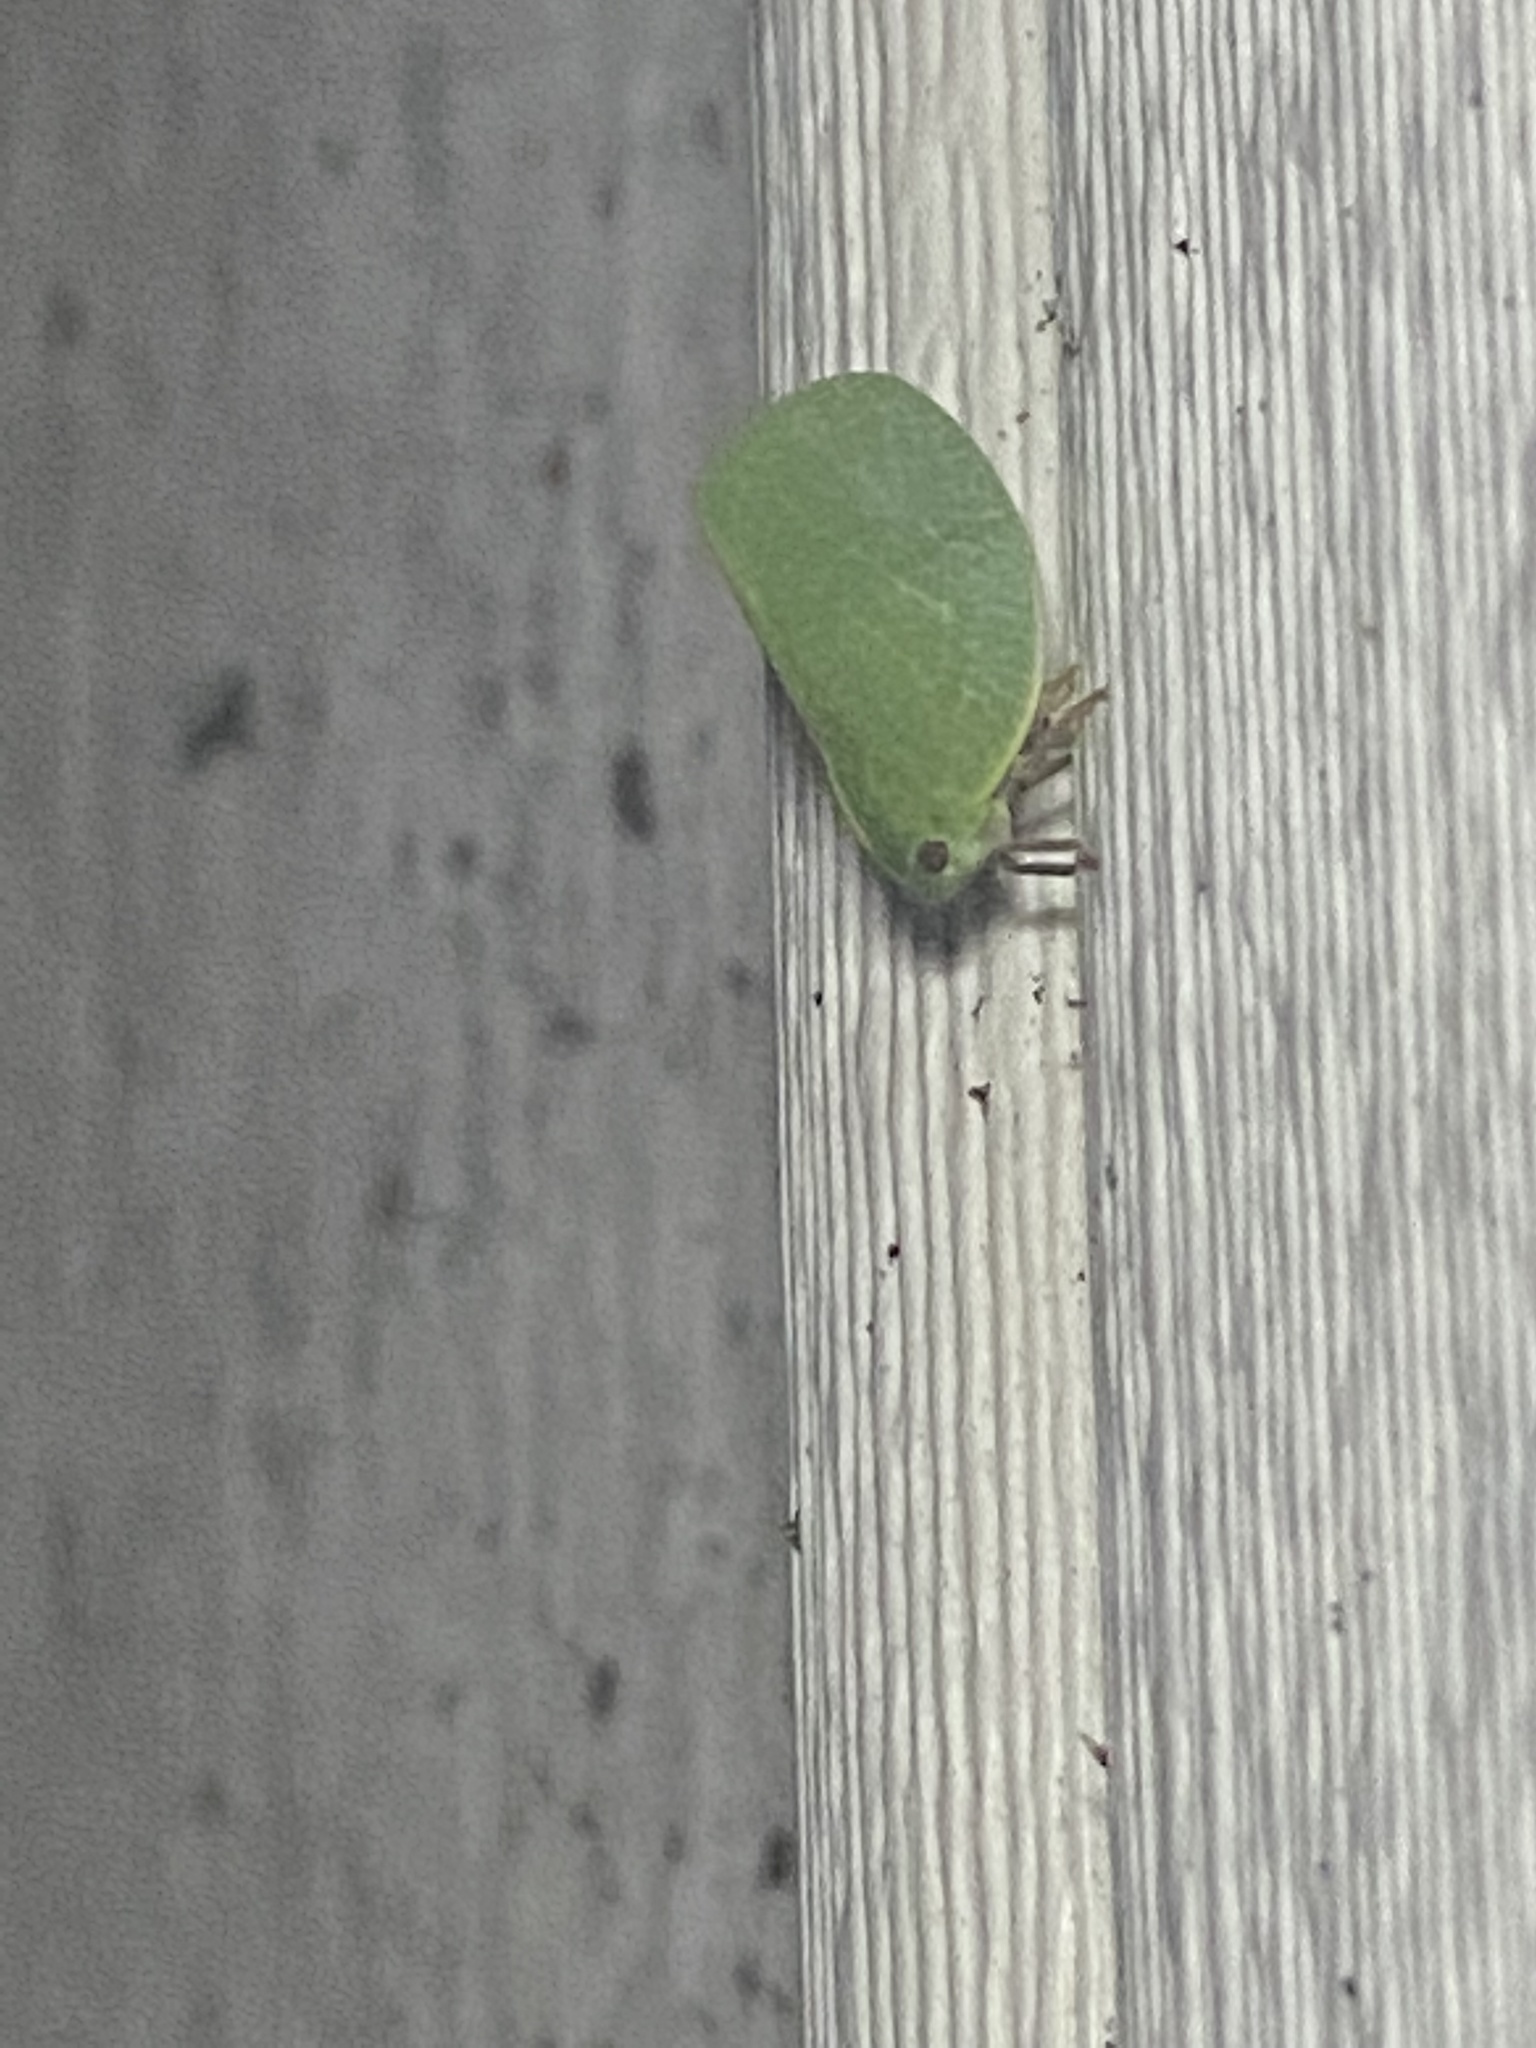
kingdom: Animalia
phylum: Arthropoda
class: Insecta
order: Hemiptera
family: Acanaloniidae
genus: Acanalonia
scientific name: Acanalonia servillei
